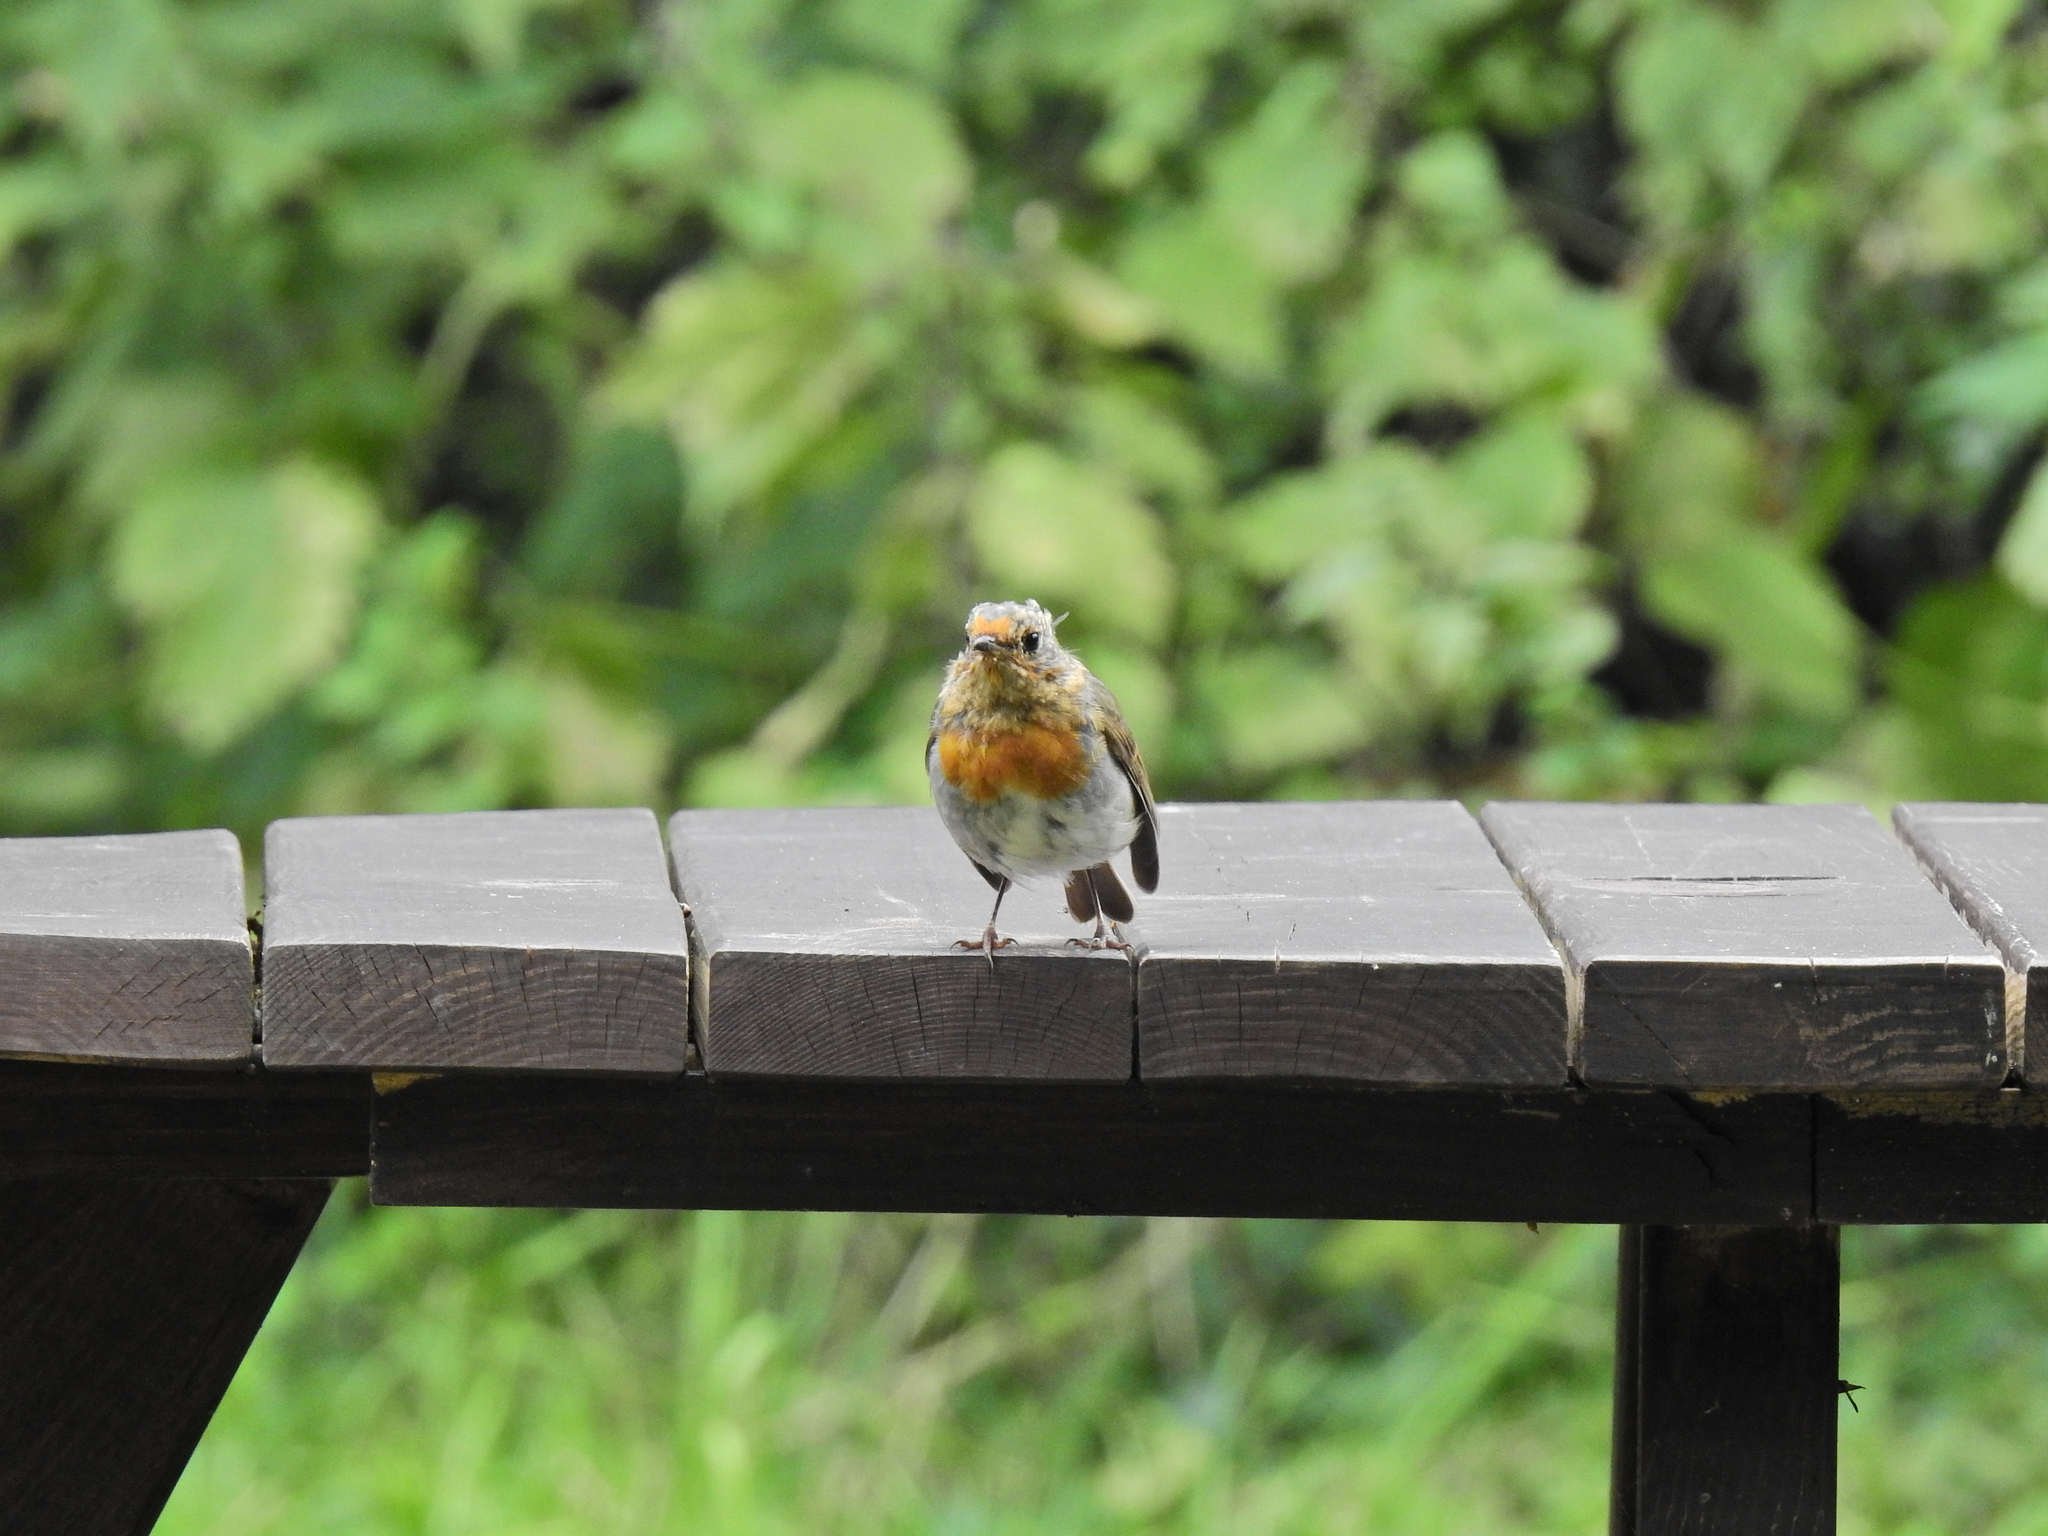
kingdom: Animalia
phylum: Chordata
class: Aves
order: Passeriformes
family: Muscicapidae
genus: Erithacus
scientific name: Erithacus rubecula
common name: European robin
